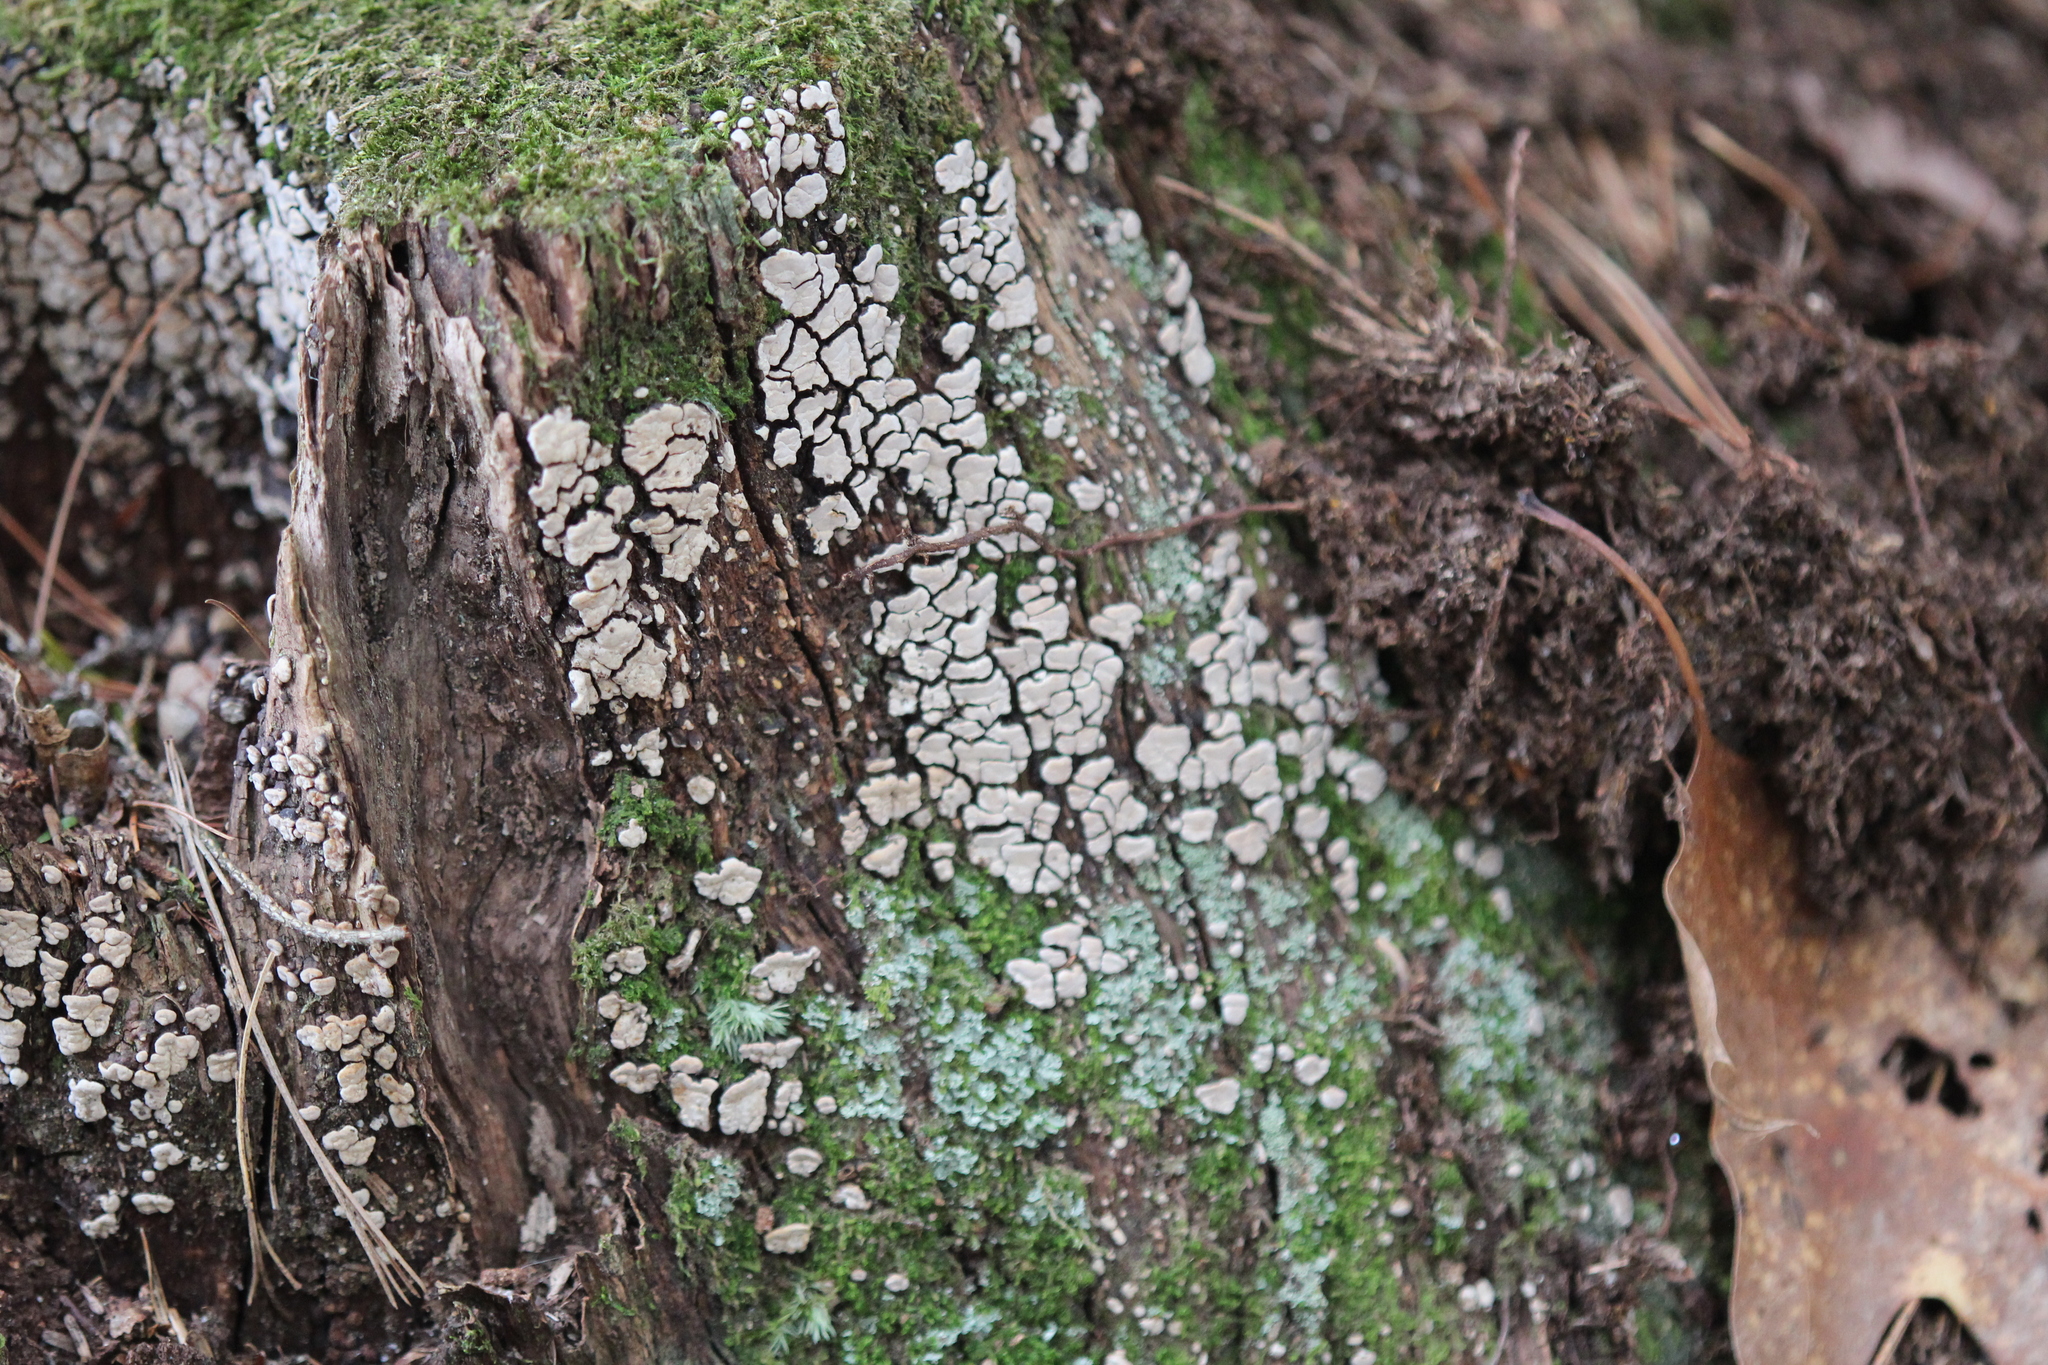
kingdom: Fungi
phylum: Basidiomycota
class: Agaricomycetes
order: Russulales
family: Stereaceae
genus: Xylobolus
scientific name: Xylobolus frustulatus
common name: Ceramic parchment
